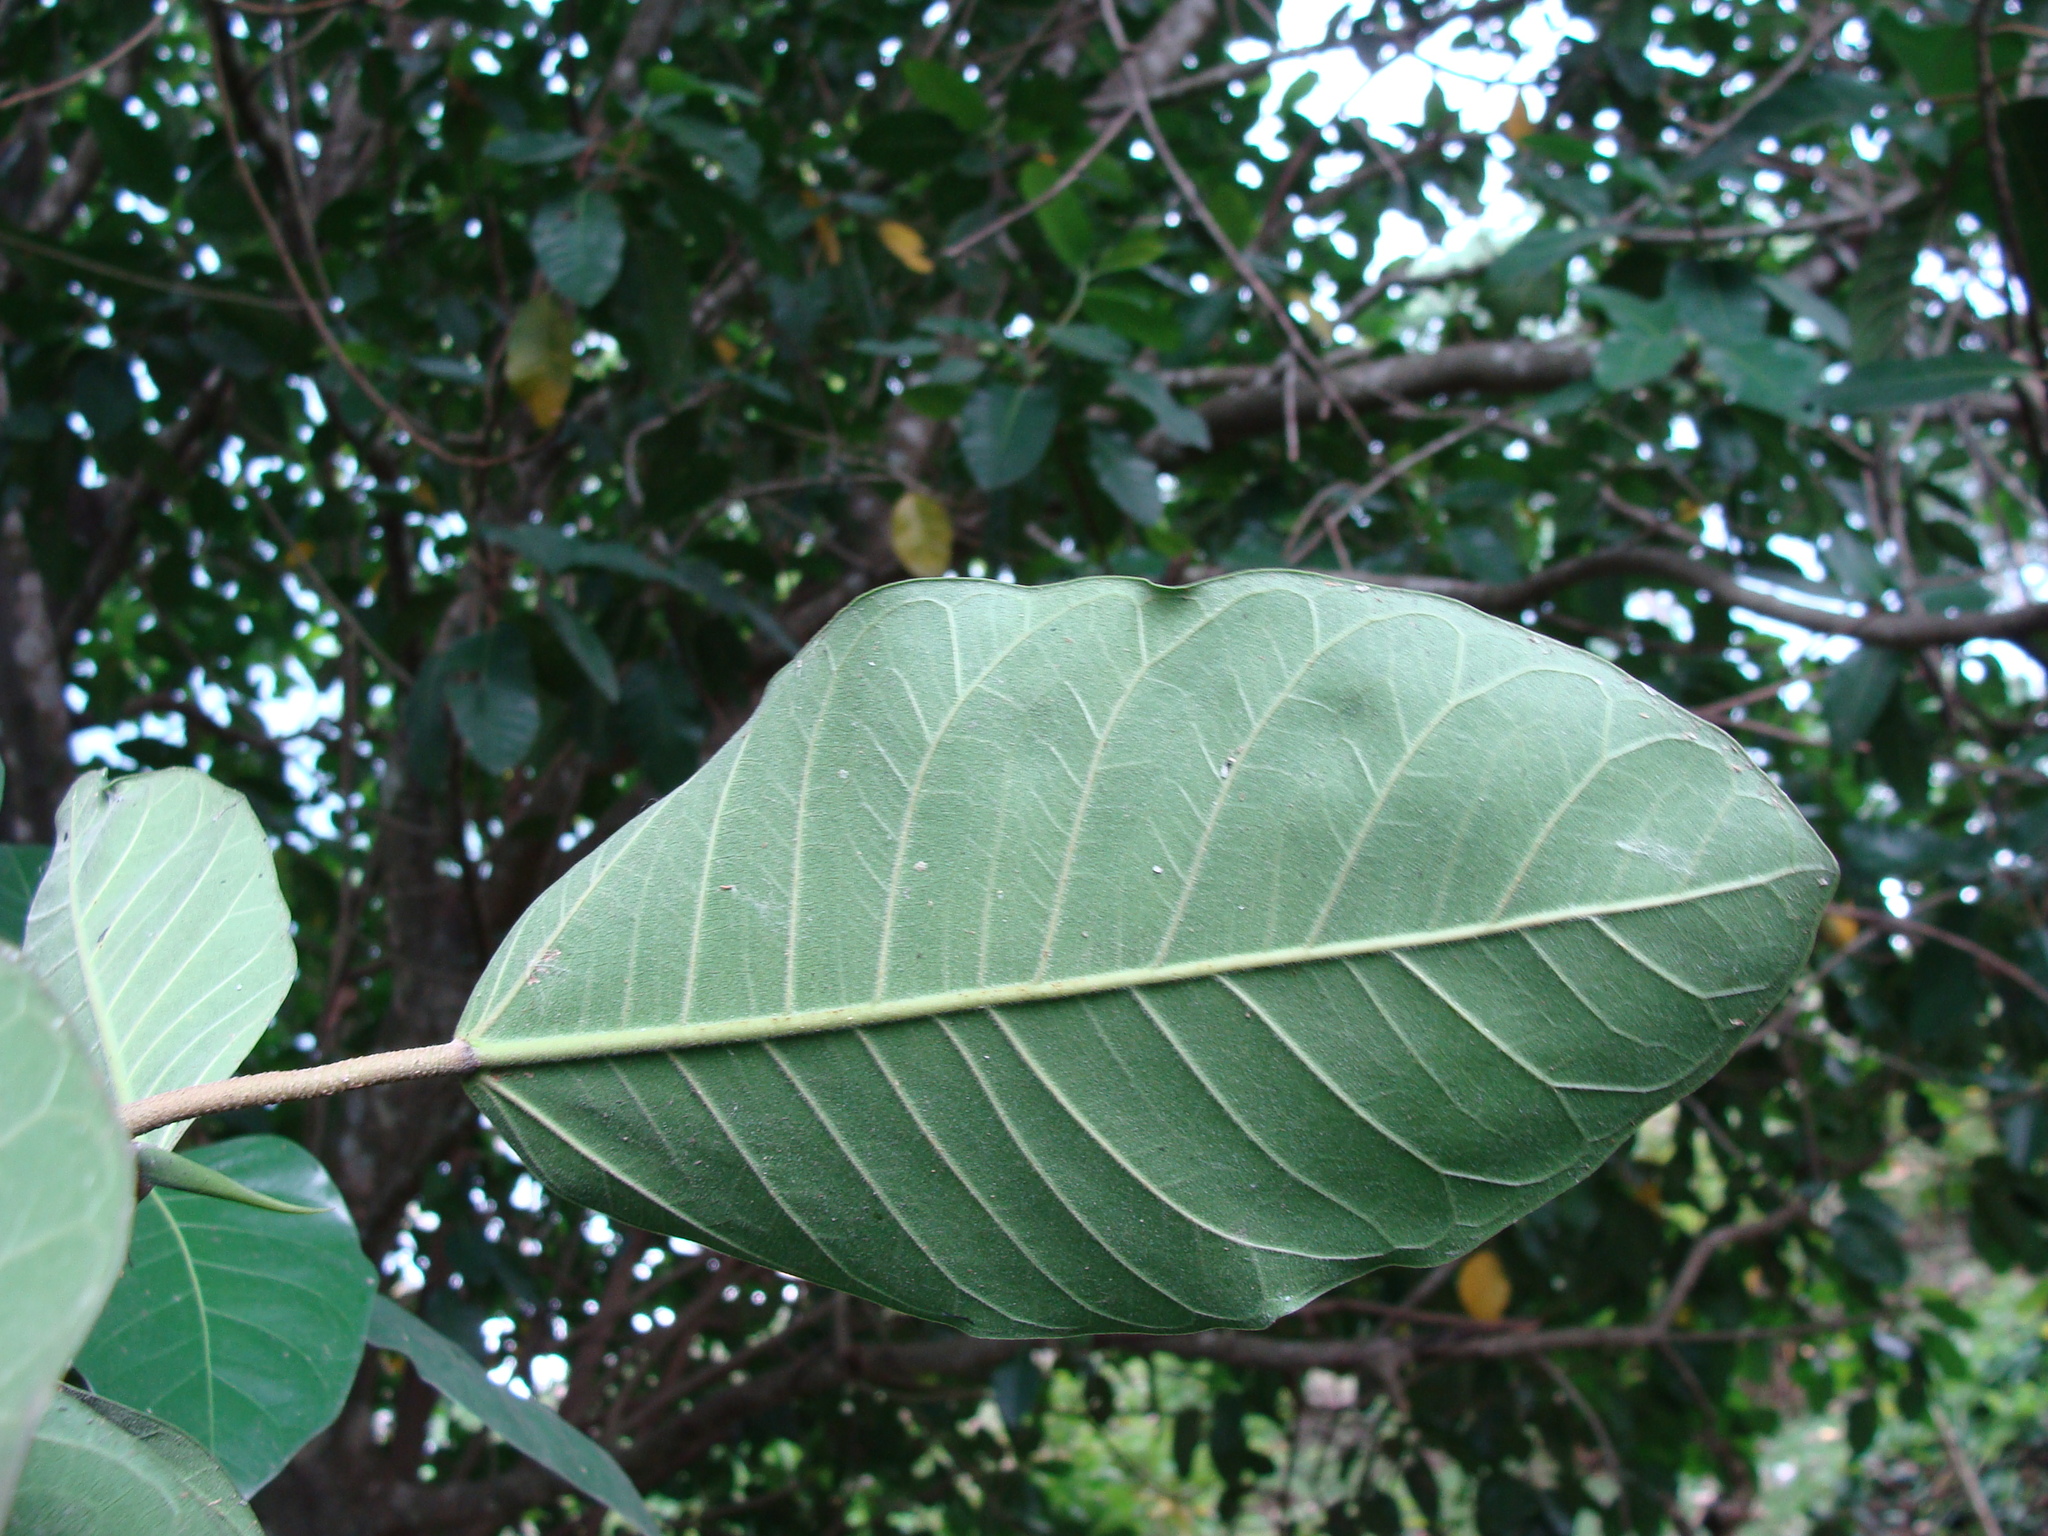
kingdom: Plantae
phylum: Tracheophyta
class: Magnoliopsida
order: Rosales
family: Moraceae
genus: Ficus
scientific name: Ficus maxima
